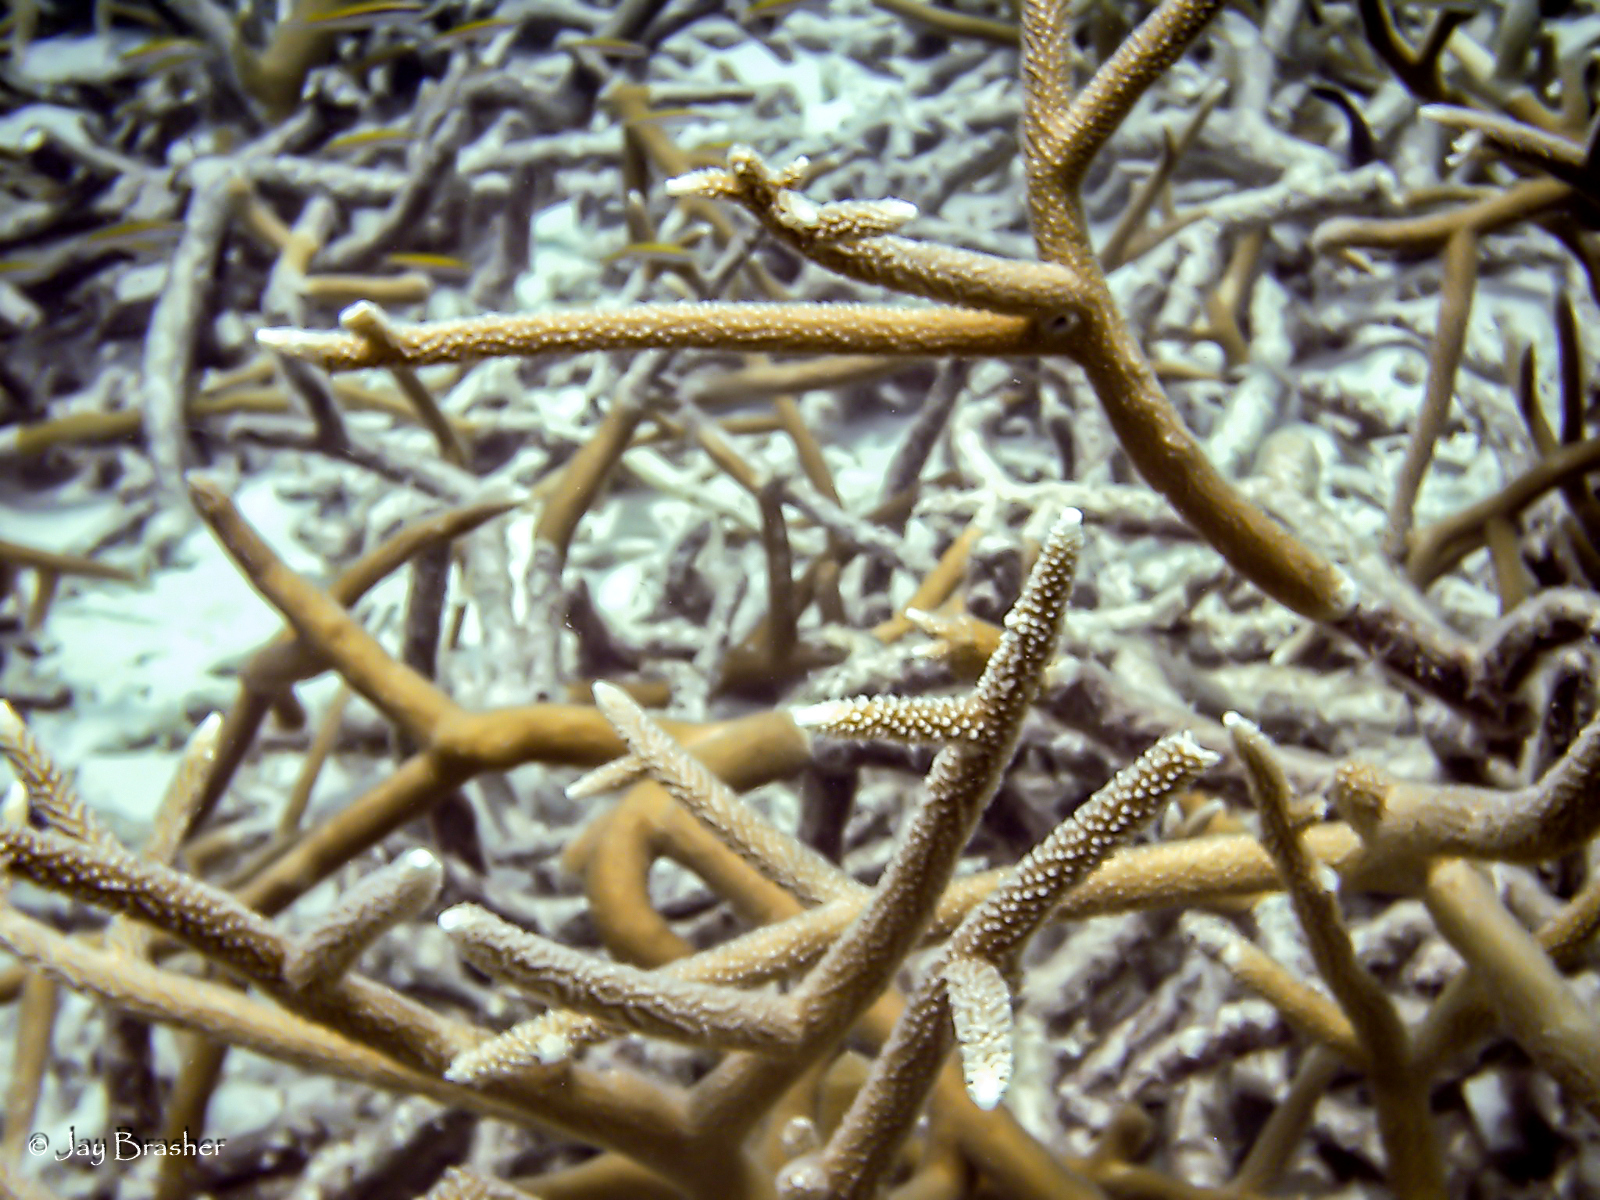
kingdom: Animalia
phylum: Cnidaria
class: Anthozoa
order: Scleractinia
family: Acroporidae
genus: Acropora
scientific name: Acropora cervicornis
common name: Staghorn coral
